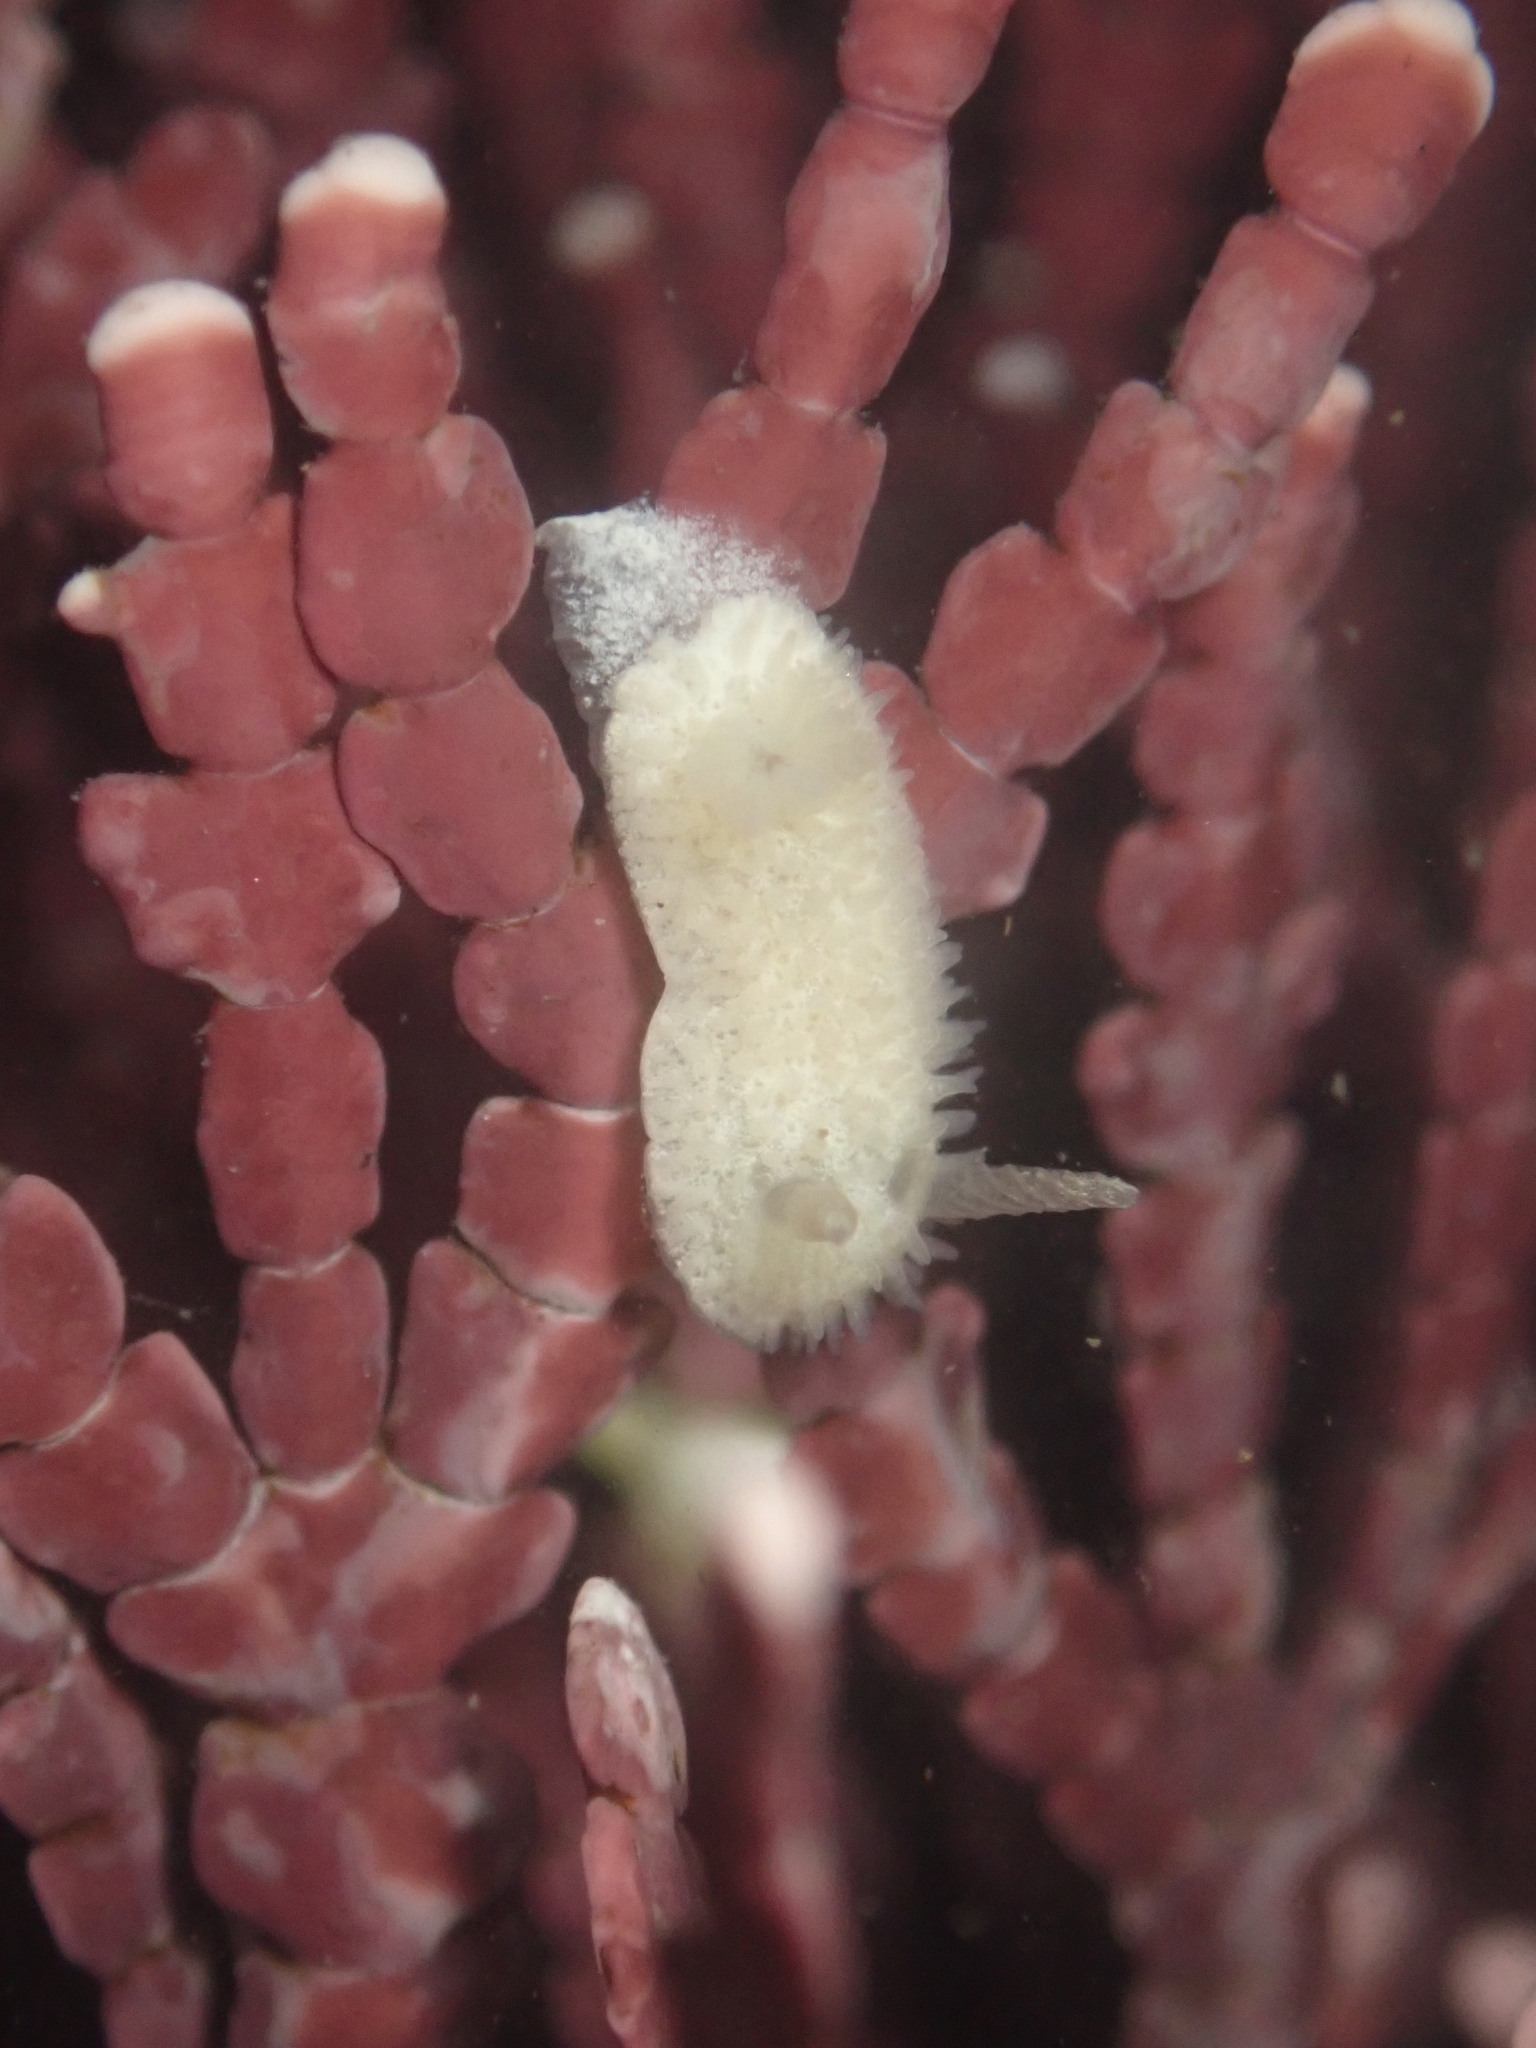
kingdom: Animalia
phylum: Mollusca
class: Gastropoda
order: Nudibranchia
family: Calycidorididae
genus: Diaphorodoris
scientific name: Diaphorodoris lirulatocauda
